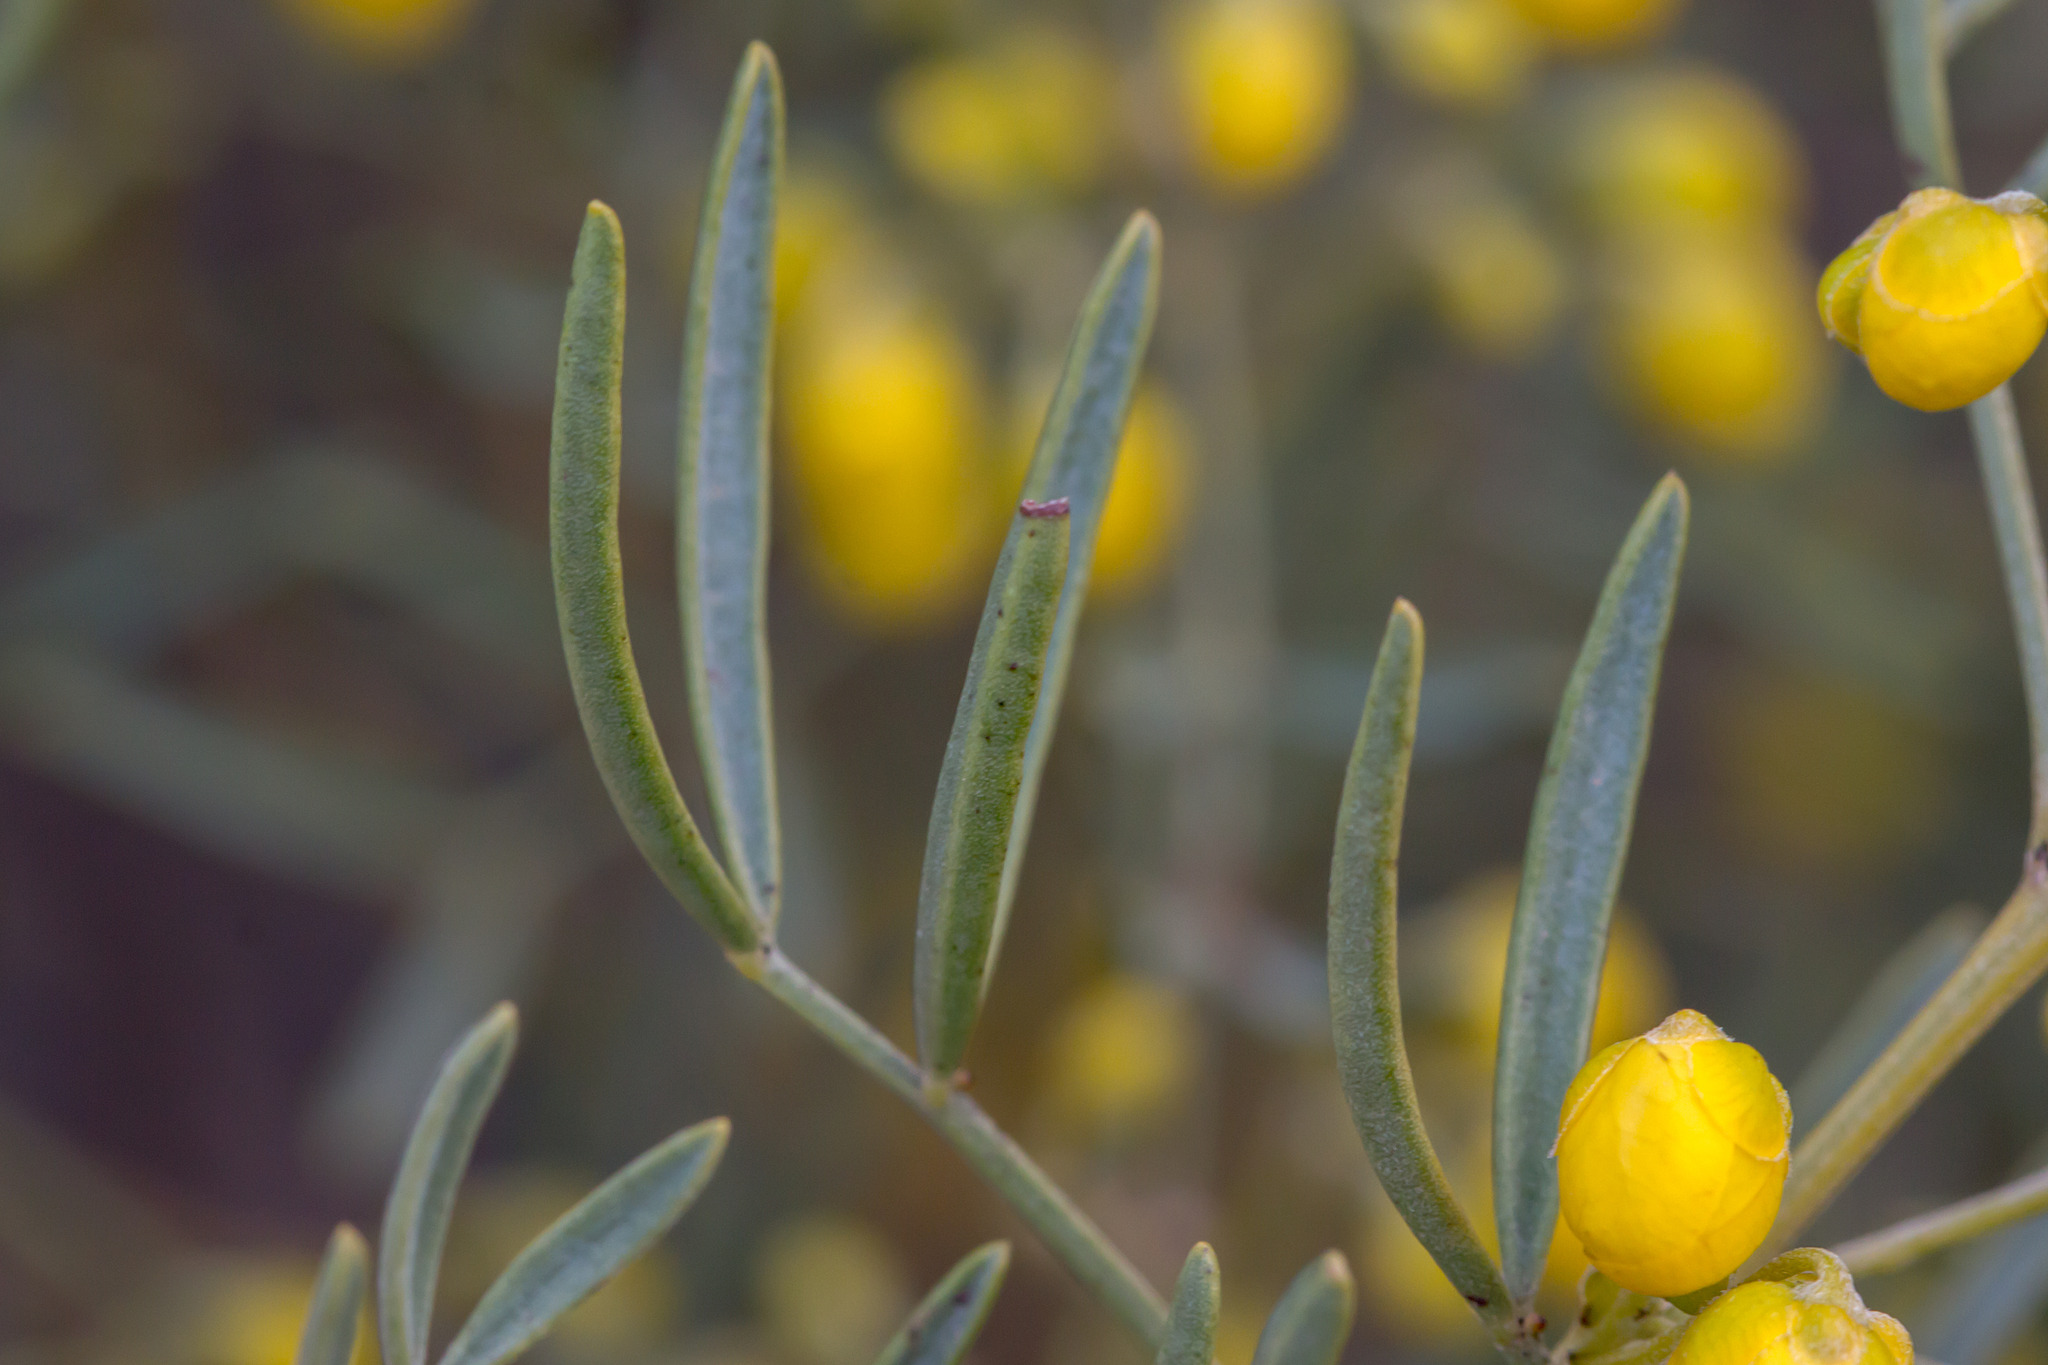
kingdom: Plantae
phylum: Tracheophyta
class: Magnoliopsida
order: Fabales
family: Fabaceae
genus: Senna
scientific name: Senna artemisioides
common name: Burnt-leaved acacia
